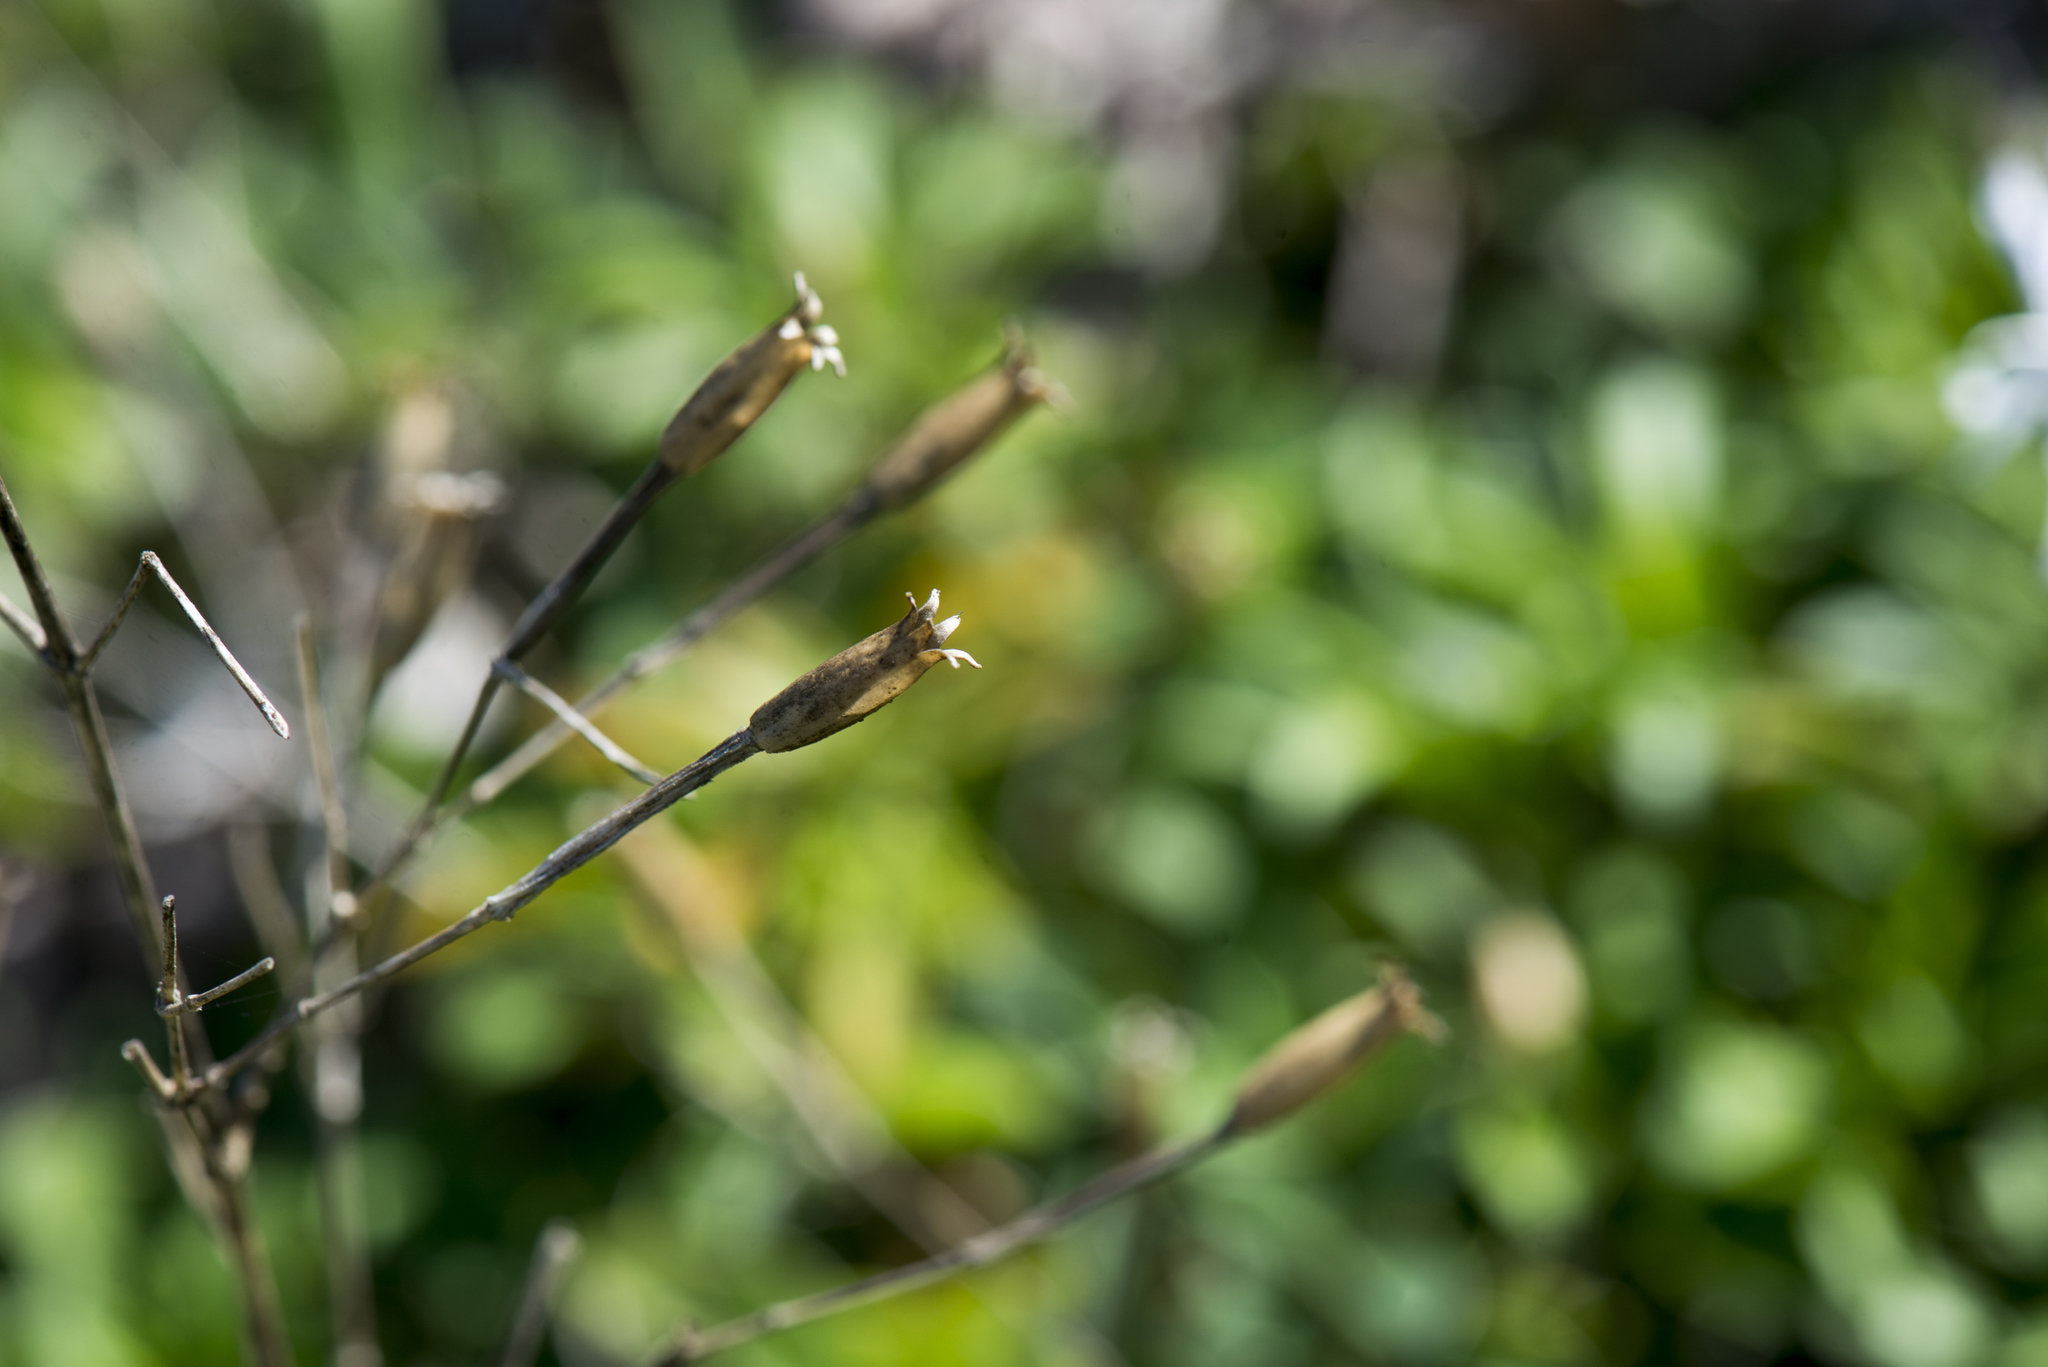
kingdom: Plantae
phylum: Tracheophyta
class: Magnoliopsida
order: Caryophyllales
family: Caryophyllaceae
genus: Silene
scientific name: Silene fissipetala
